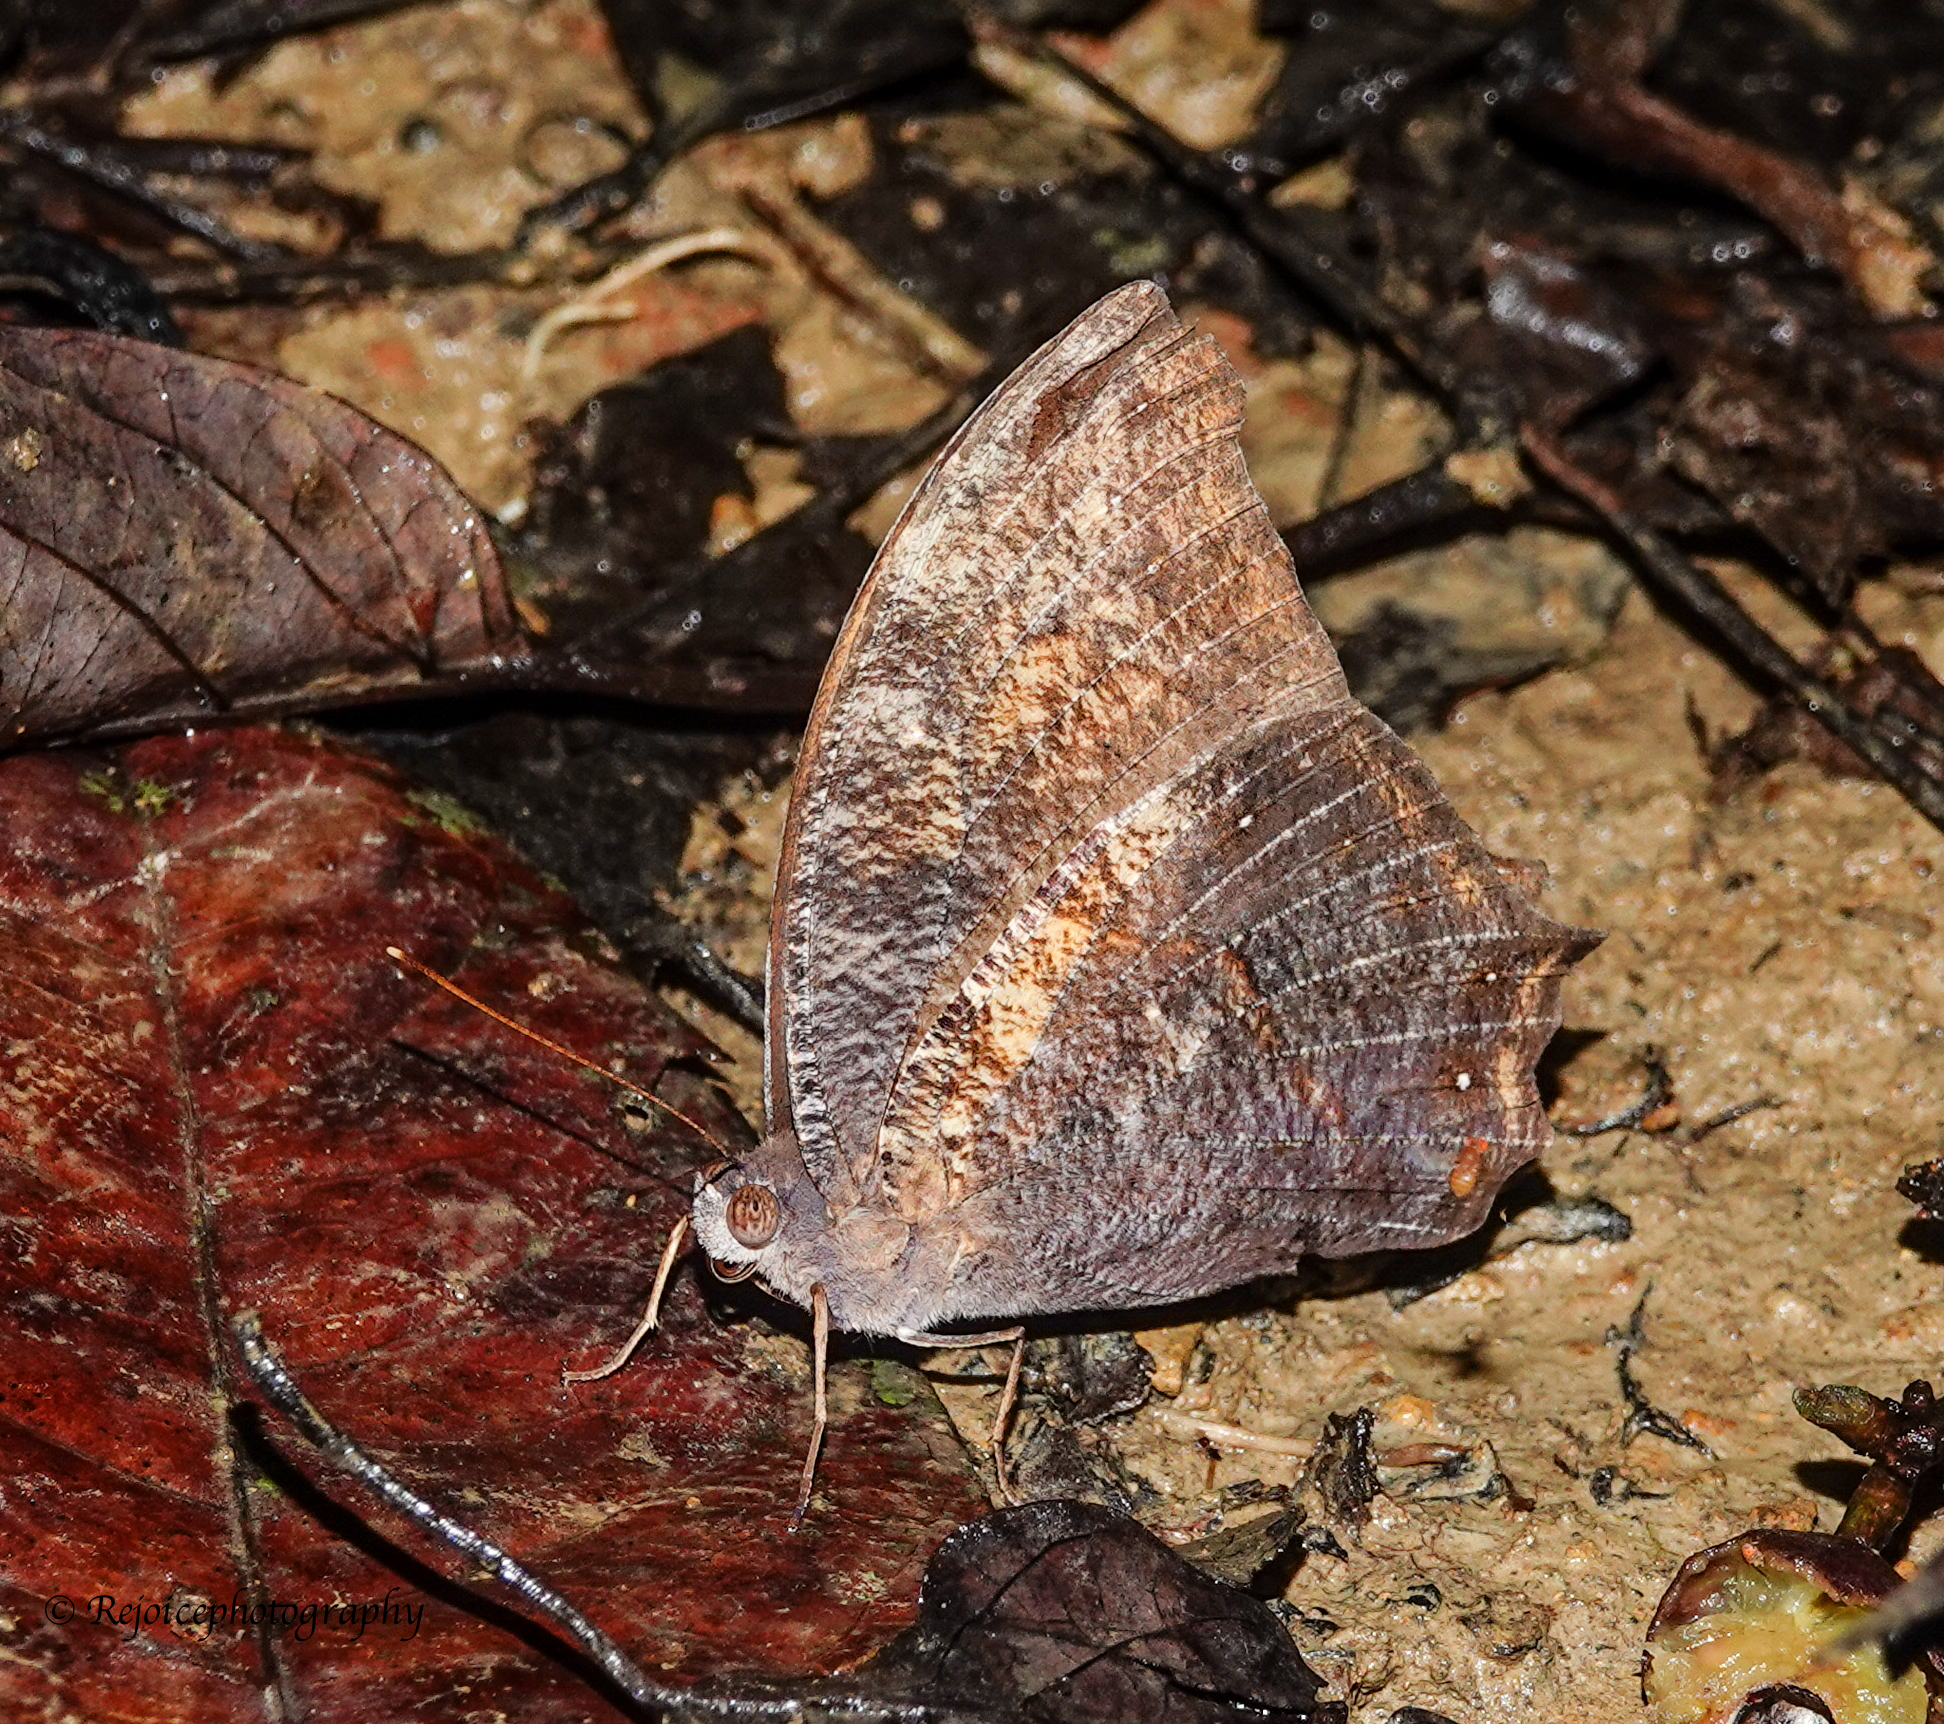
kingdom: Animalia
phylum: Arthropoda
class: Insecta
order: Lepidoptera
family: Nymphalidae
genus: Melanitis
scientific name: Melanitis leda
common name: Twilight brown
